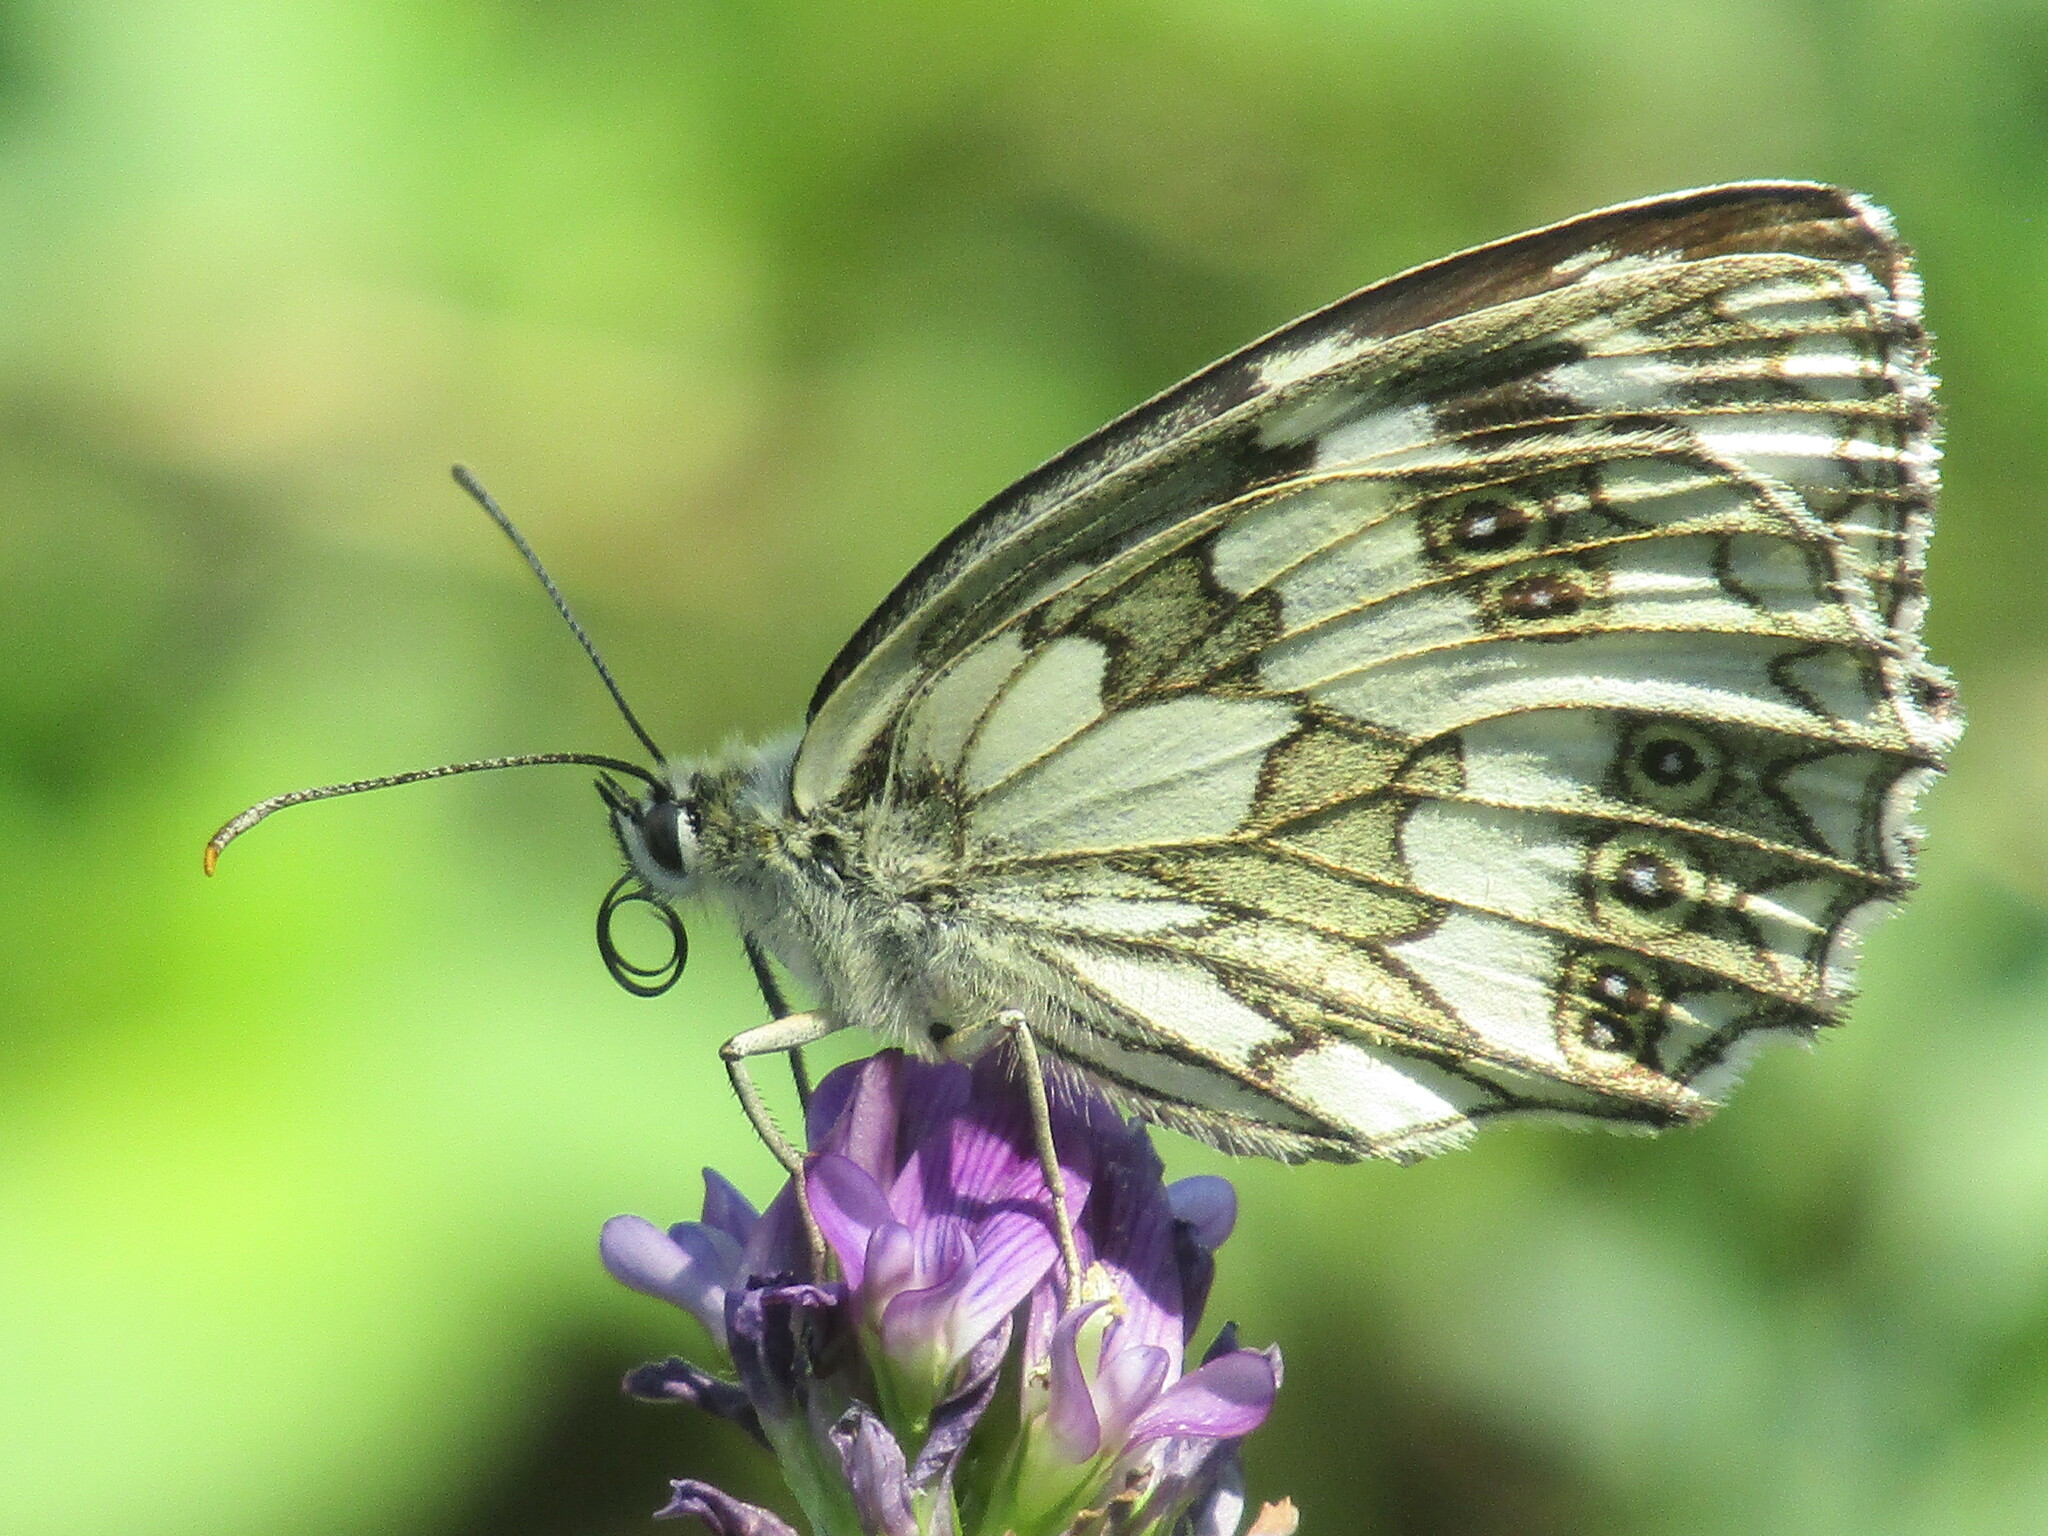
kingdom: Animalia
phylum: Arthropoda
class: Insecta
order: Lepidoptera
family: Nymphalidae
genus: Melanargia
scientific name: Melanargia galathea
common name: Marbled white
